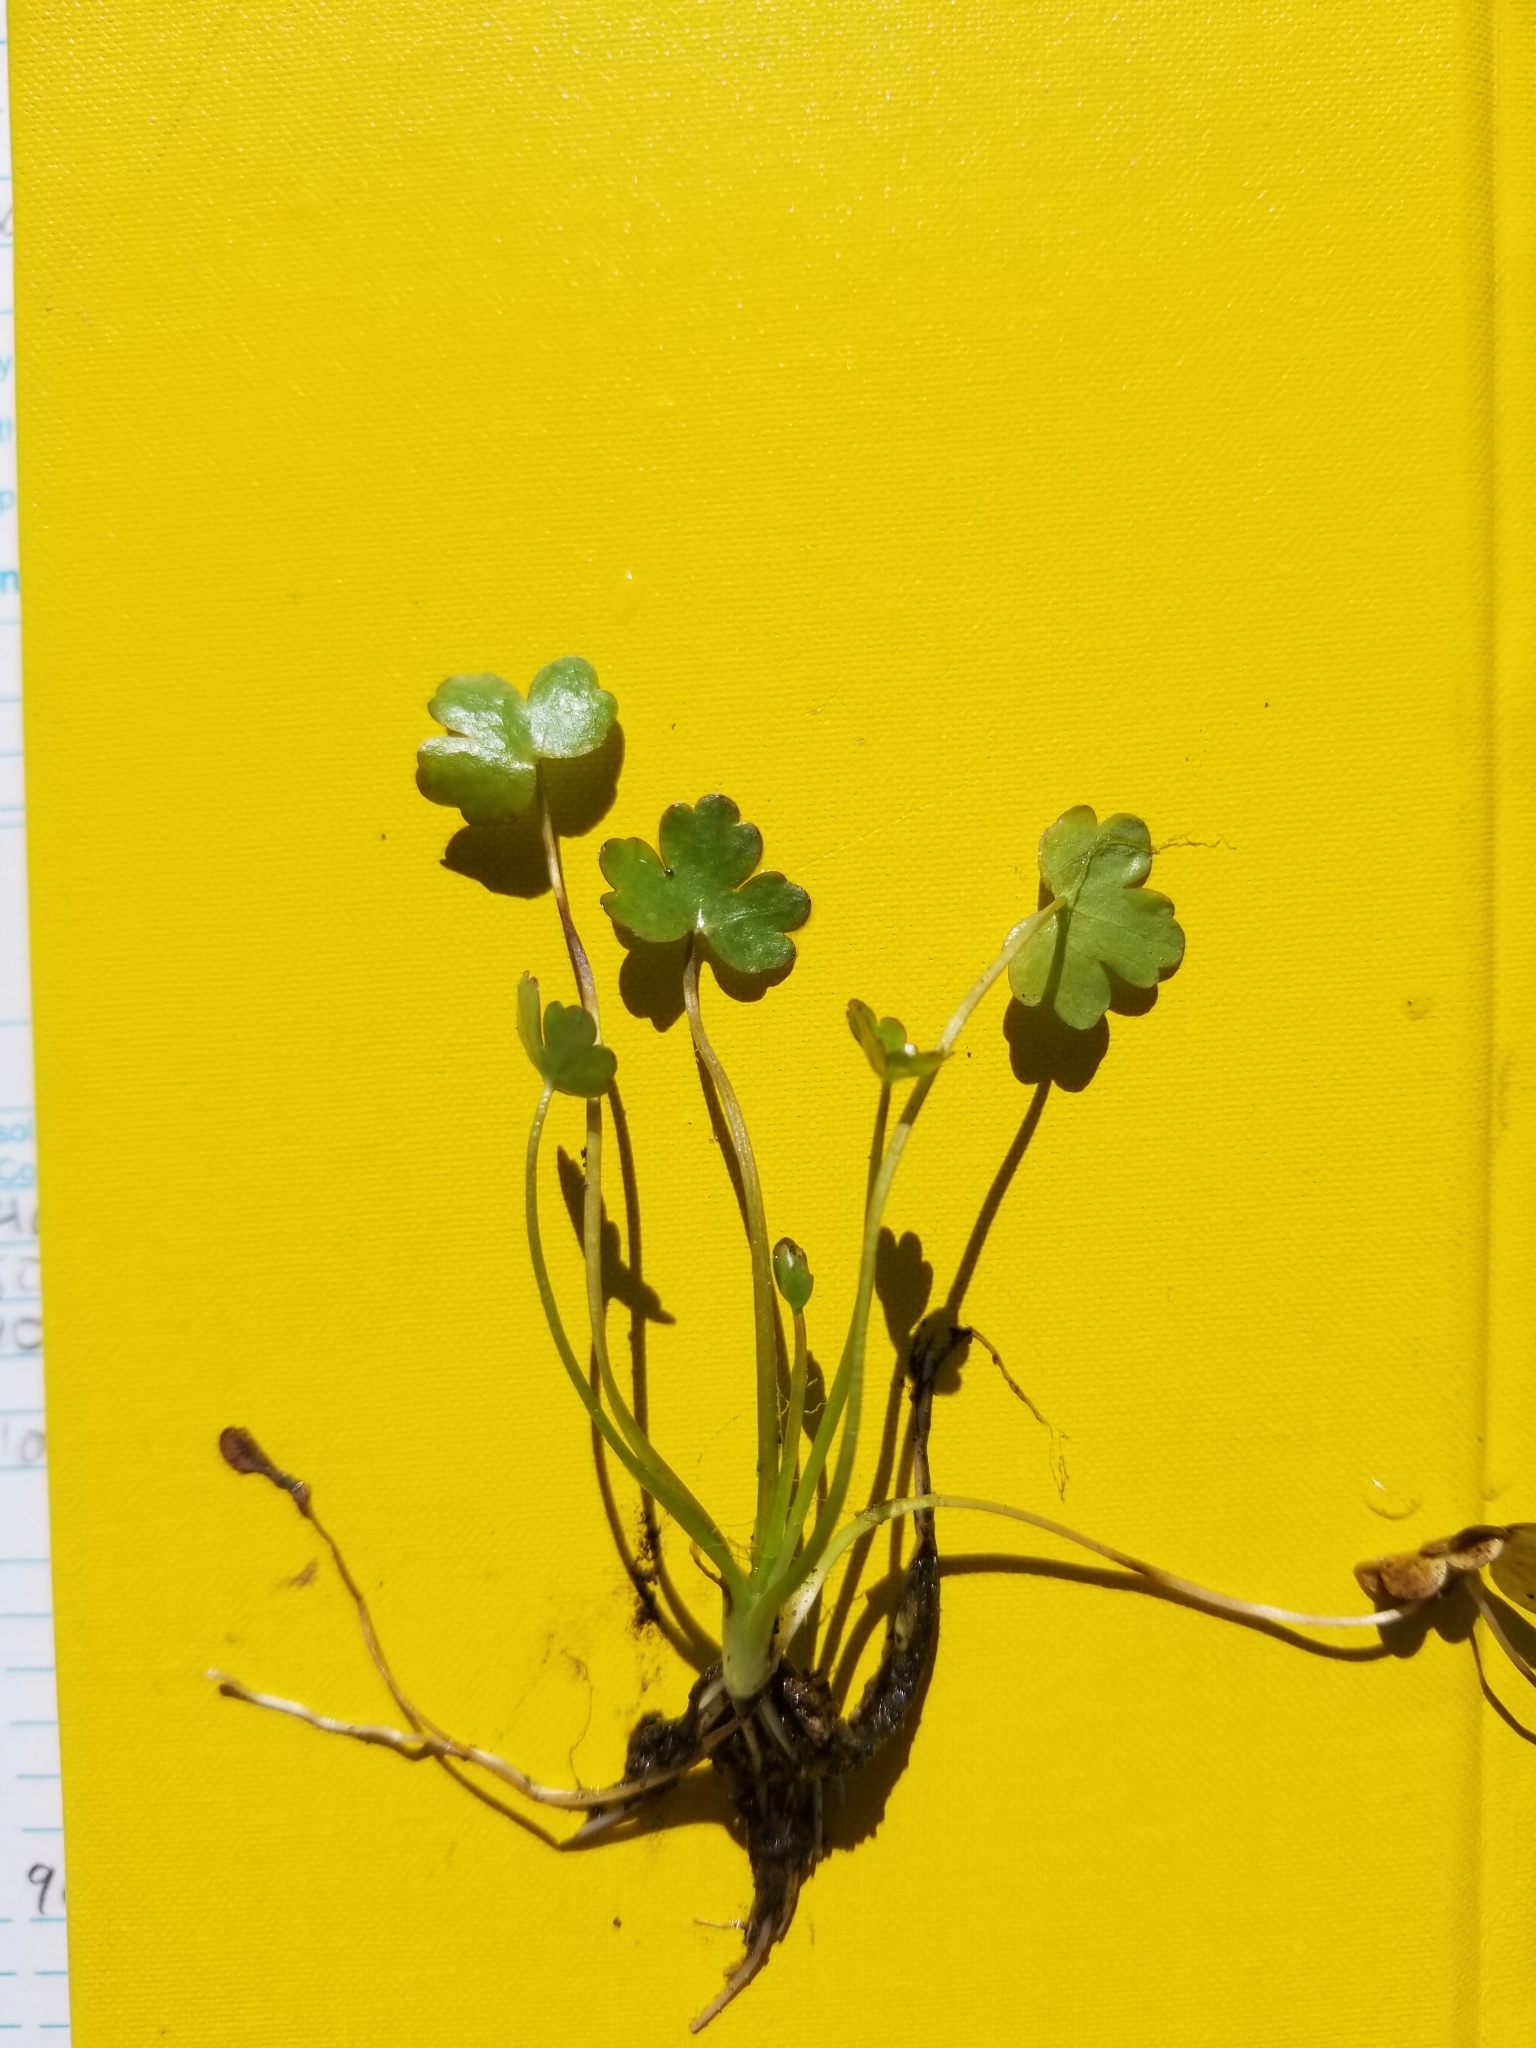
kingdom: Plantae
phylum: Tracheophyta
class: Magnoliopsida
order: Ranunculales
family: Ranunculaceae
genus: Ranunculus
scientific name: Ranunculus sceleratus
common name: Celery-leaved buttercup
